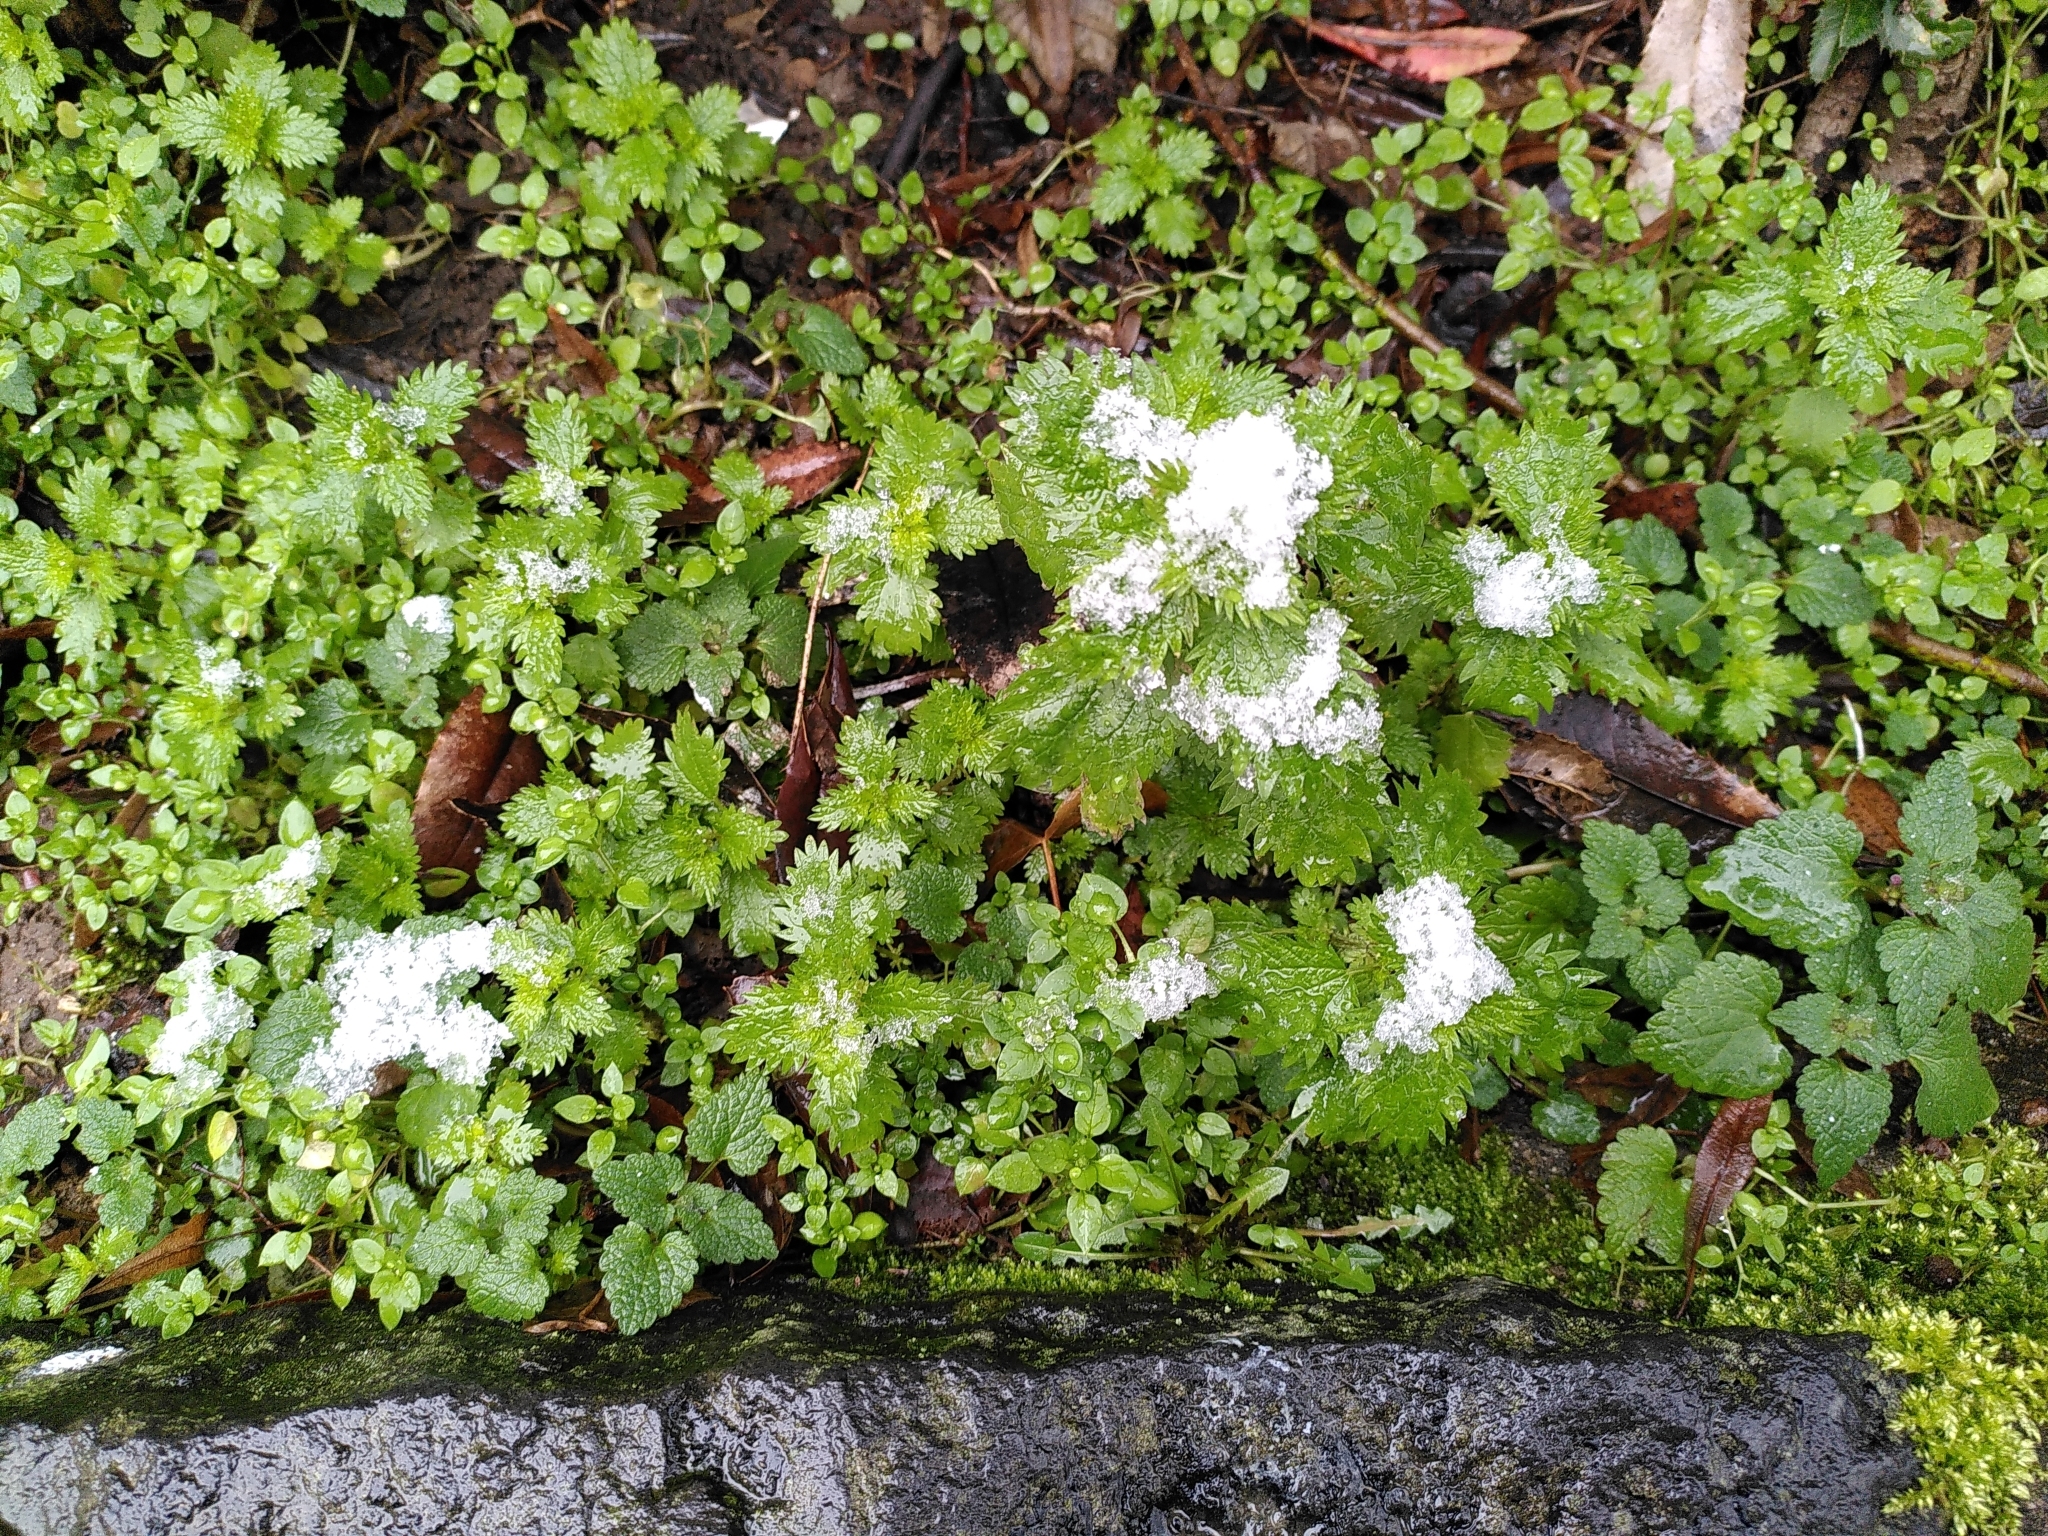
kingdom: Plantae
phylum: Tracheophyta
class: Magnoliopsida
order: Rosales
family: Urticaceae
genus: Urtica
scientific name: Urtica urens
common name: Dwarf nettle
